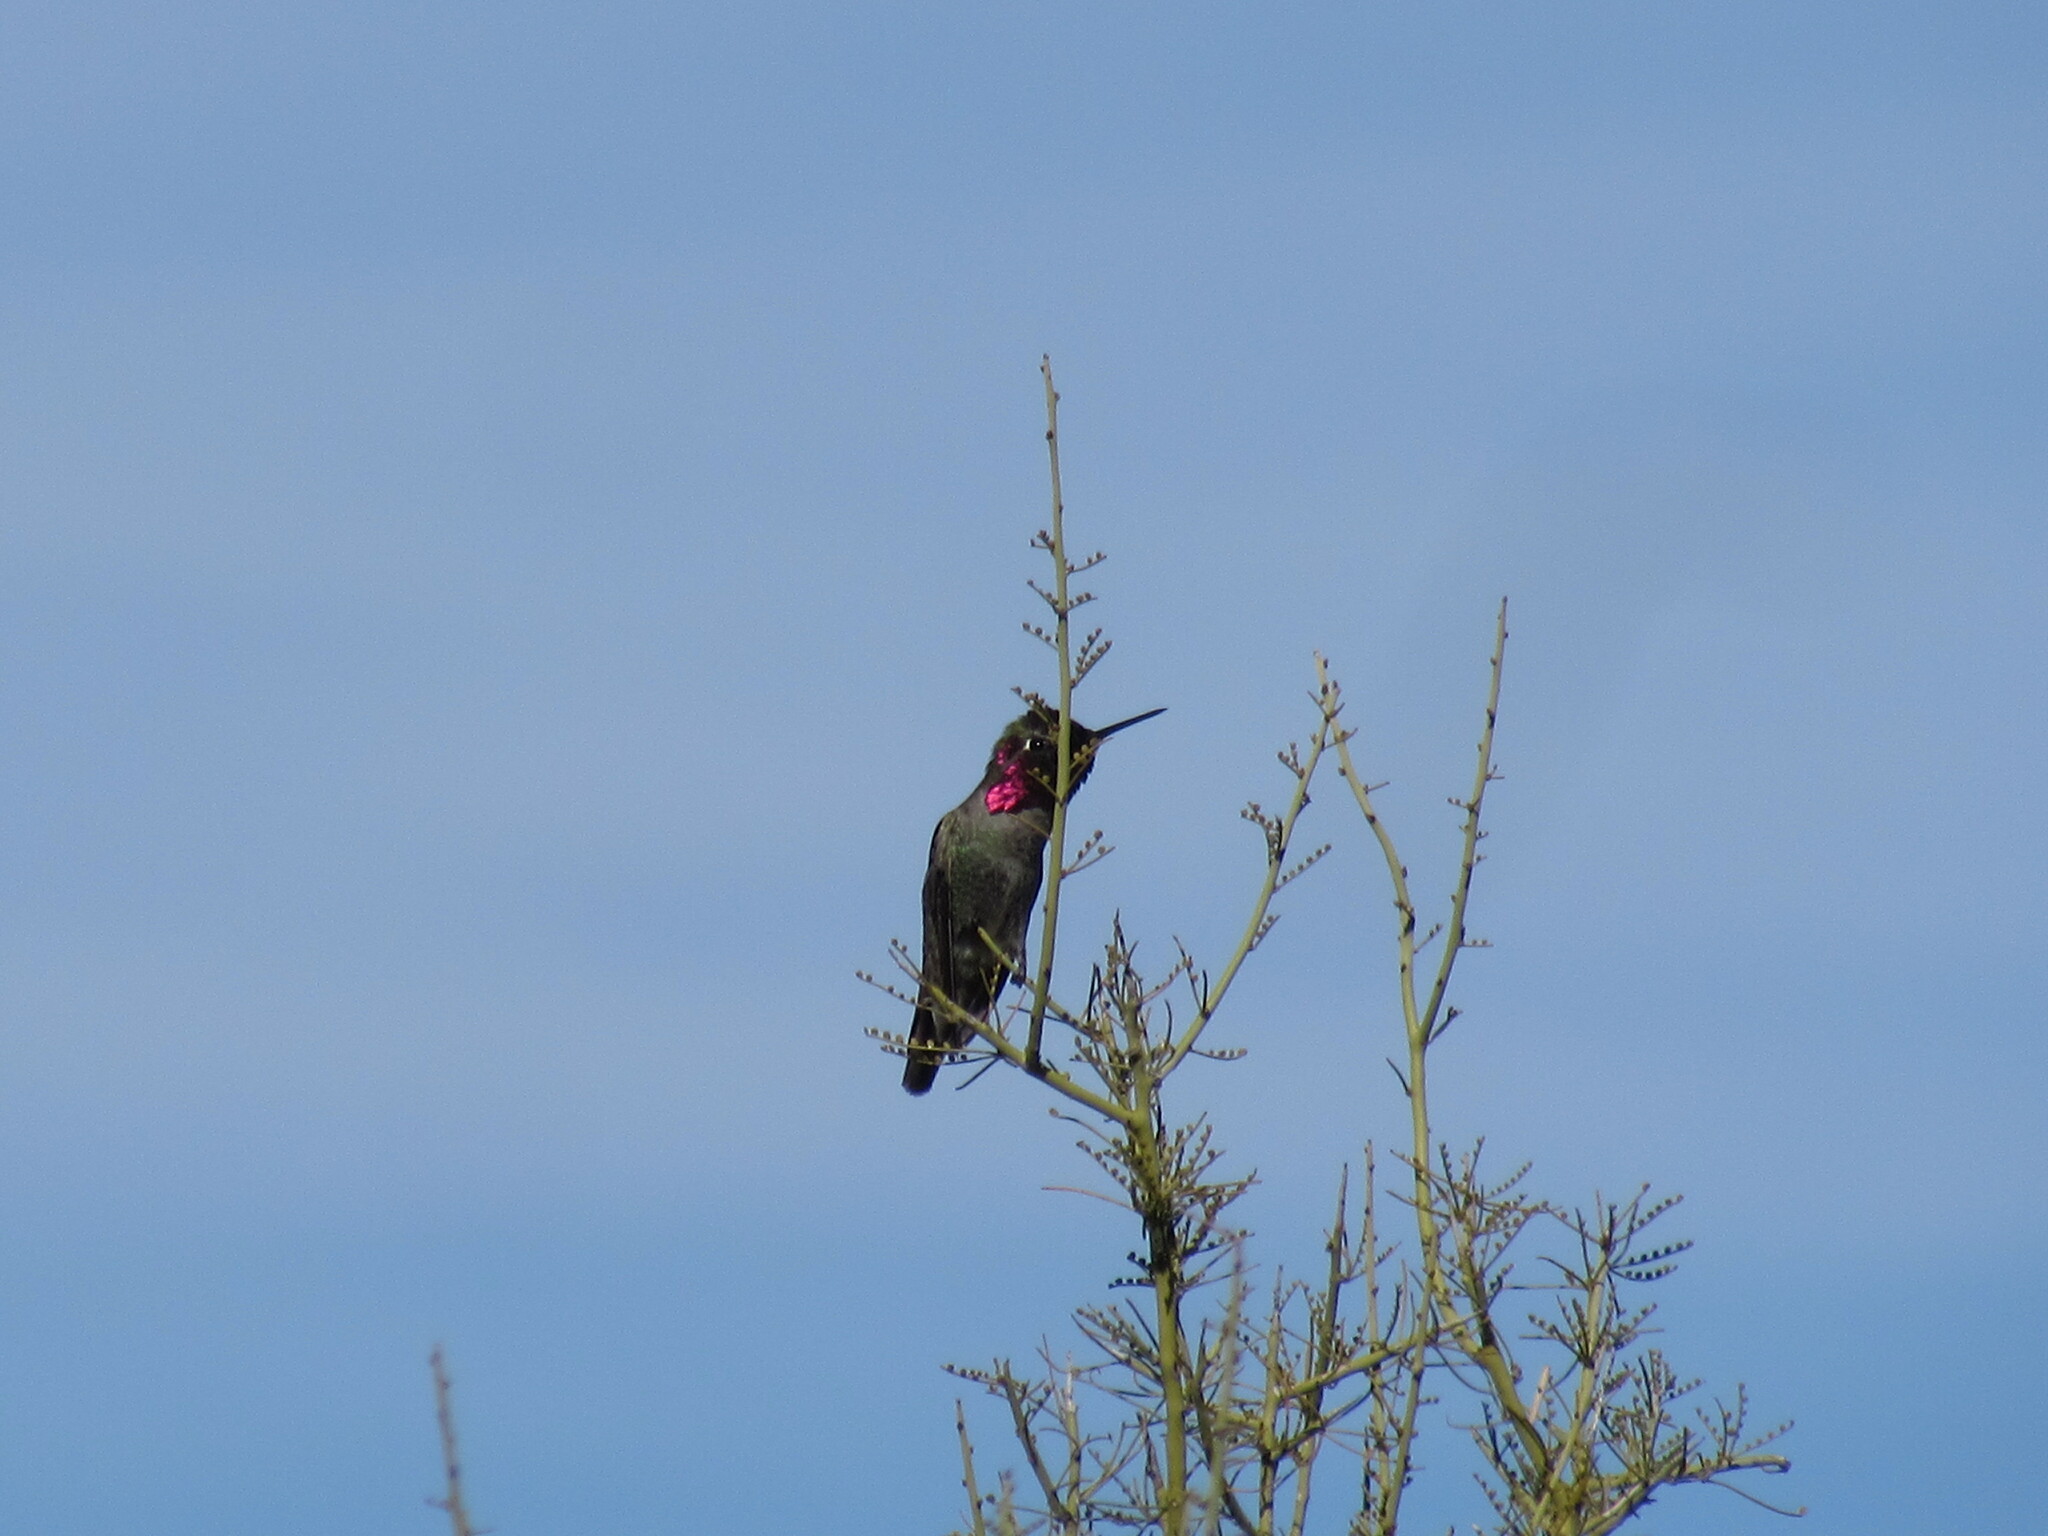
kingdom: Animalia
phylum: Chordata
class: Aves
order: Apodiformes
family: Trochilidae
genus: Calypte
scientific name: Calypte anna
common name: Anna's hummingbird
